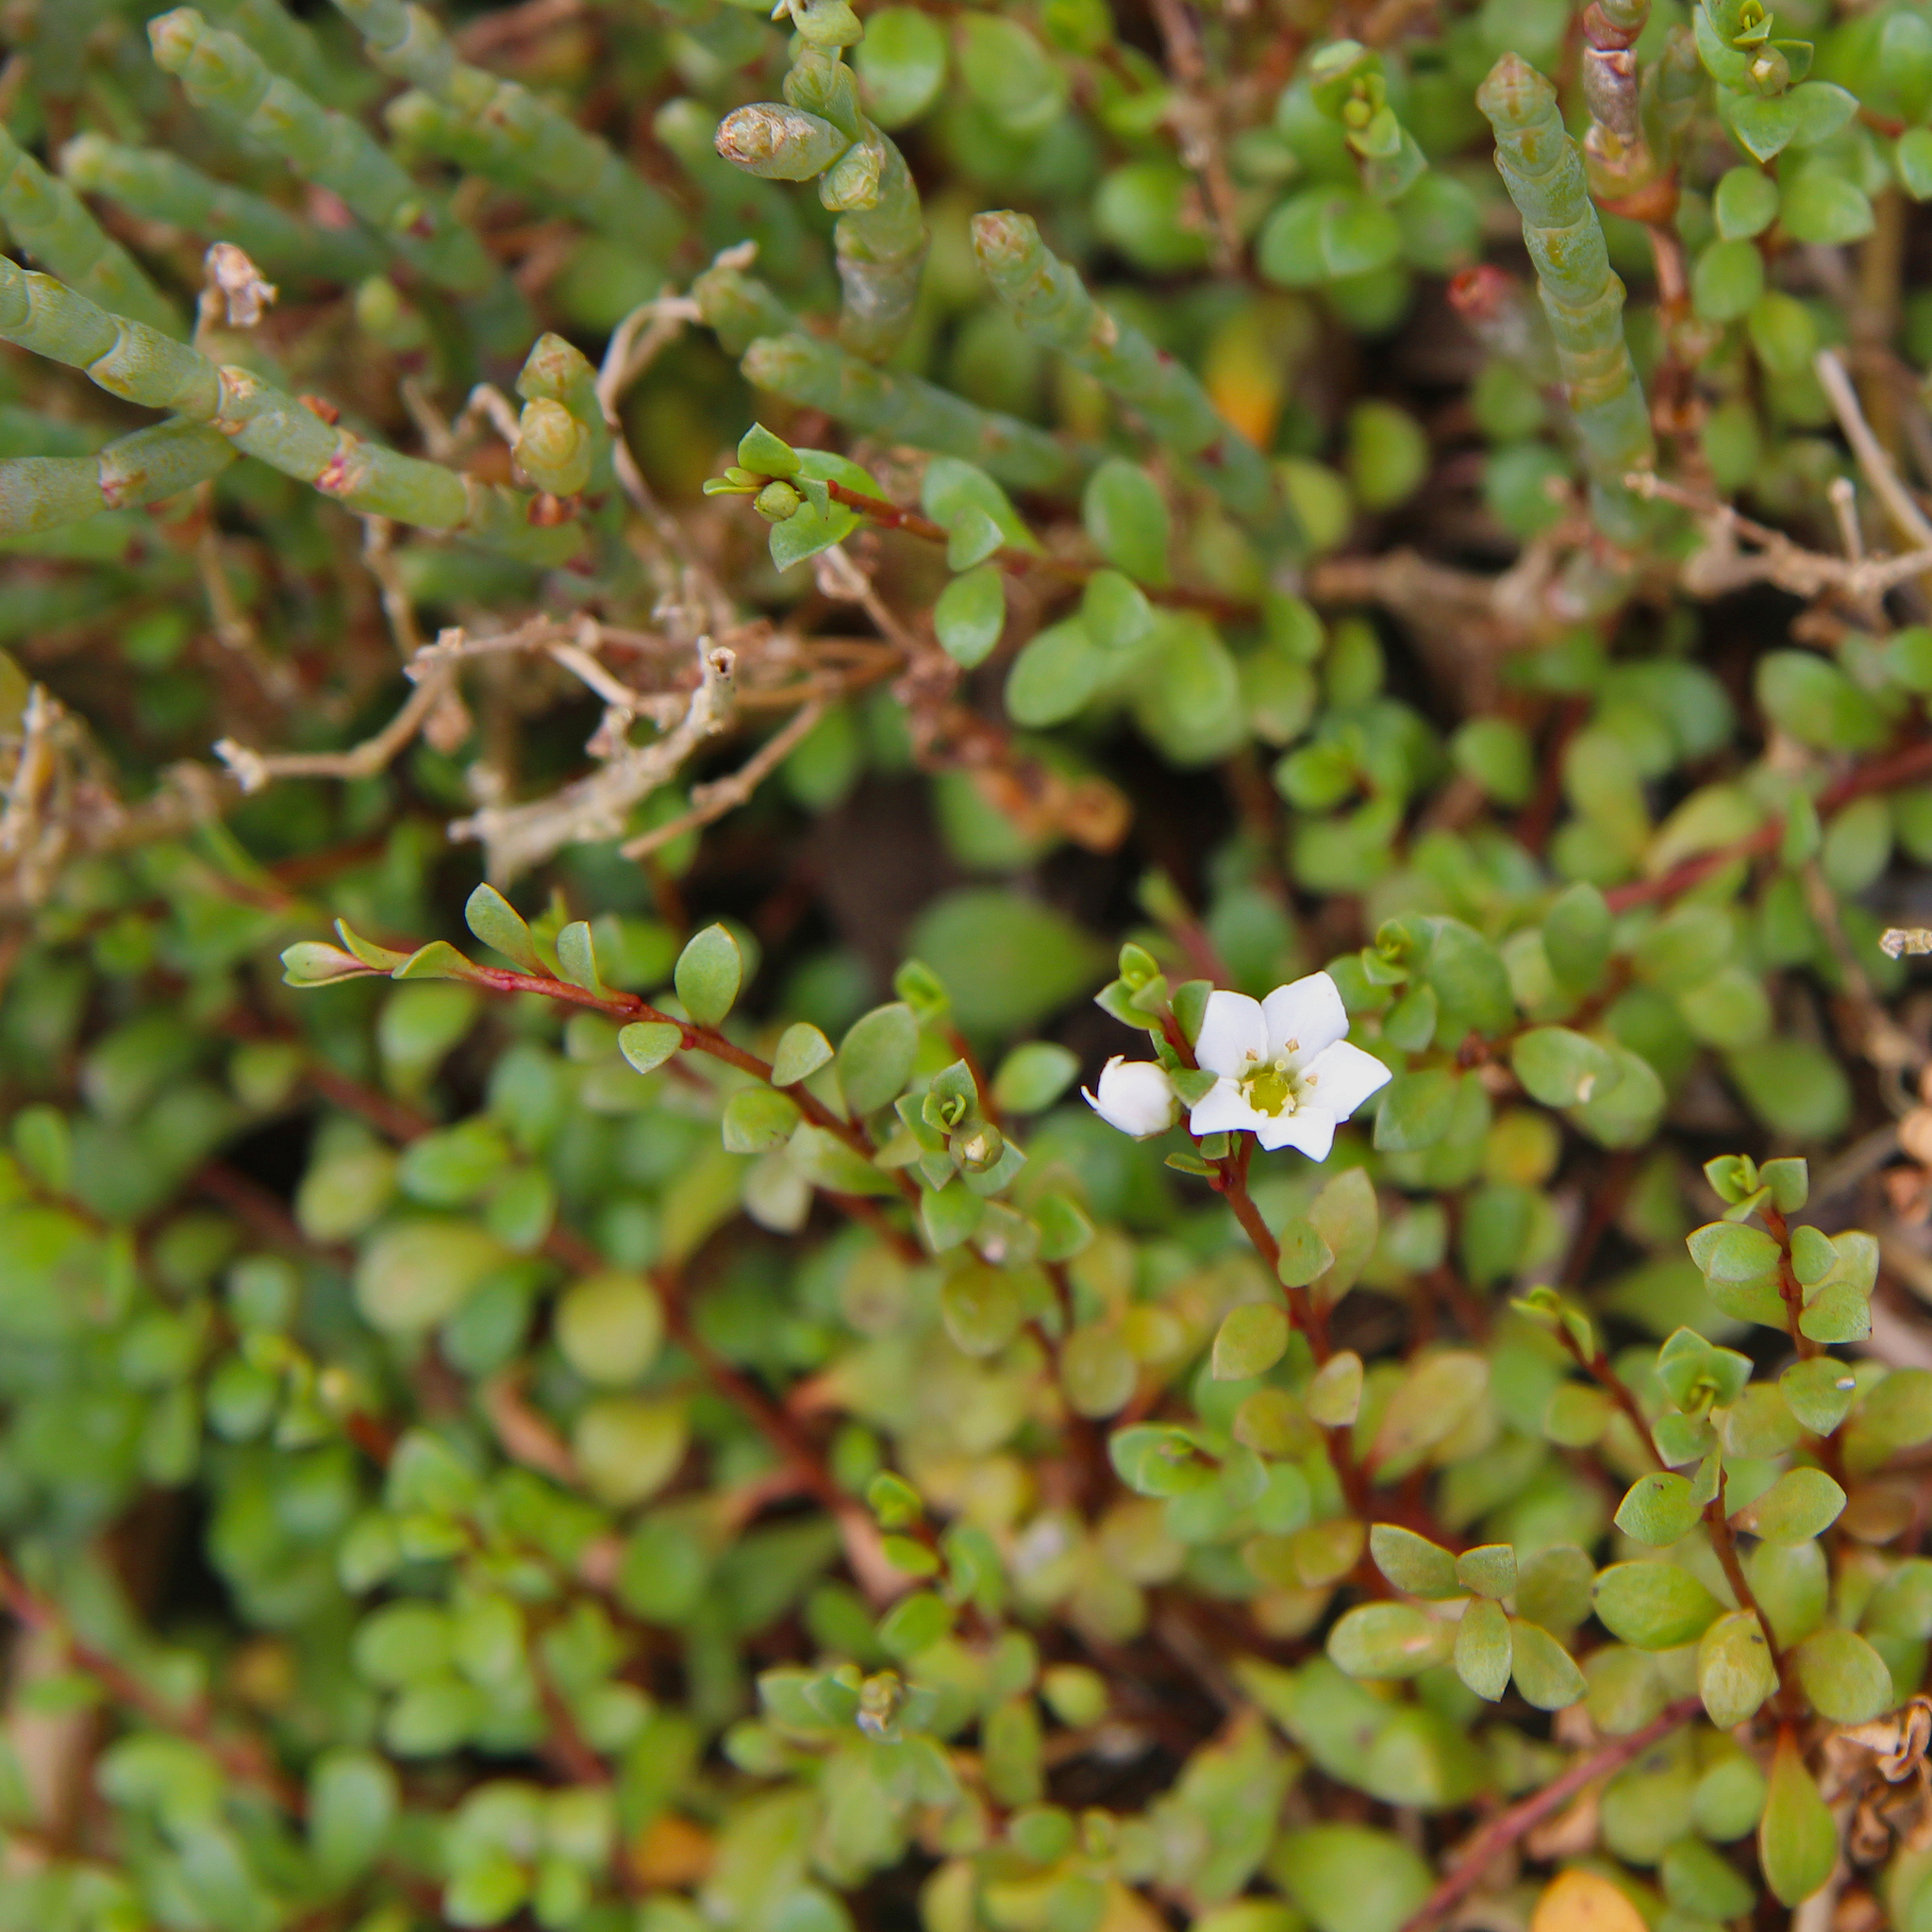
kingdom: Plantae
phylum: Tracheophyta
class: Magnoliopsida
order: Ericales
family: Primulaceae
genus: Samolus
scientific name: Samolus repens
